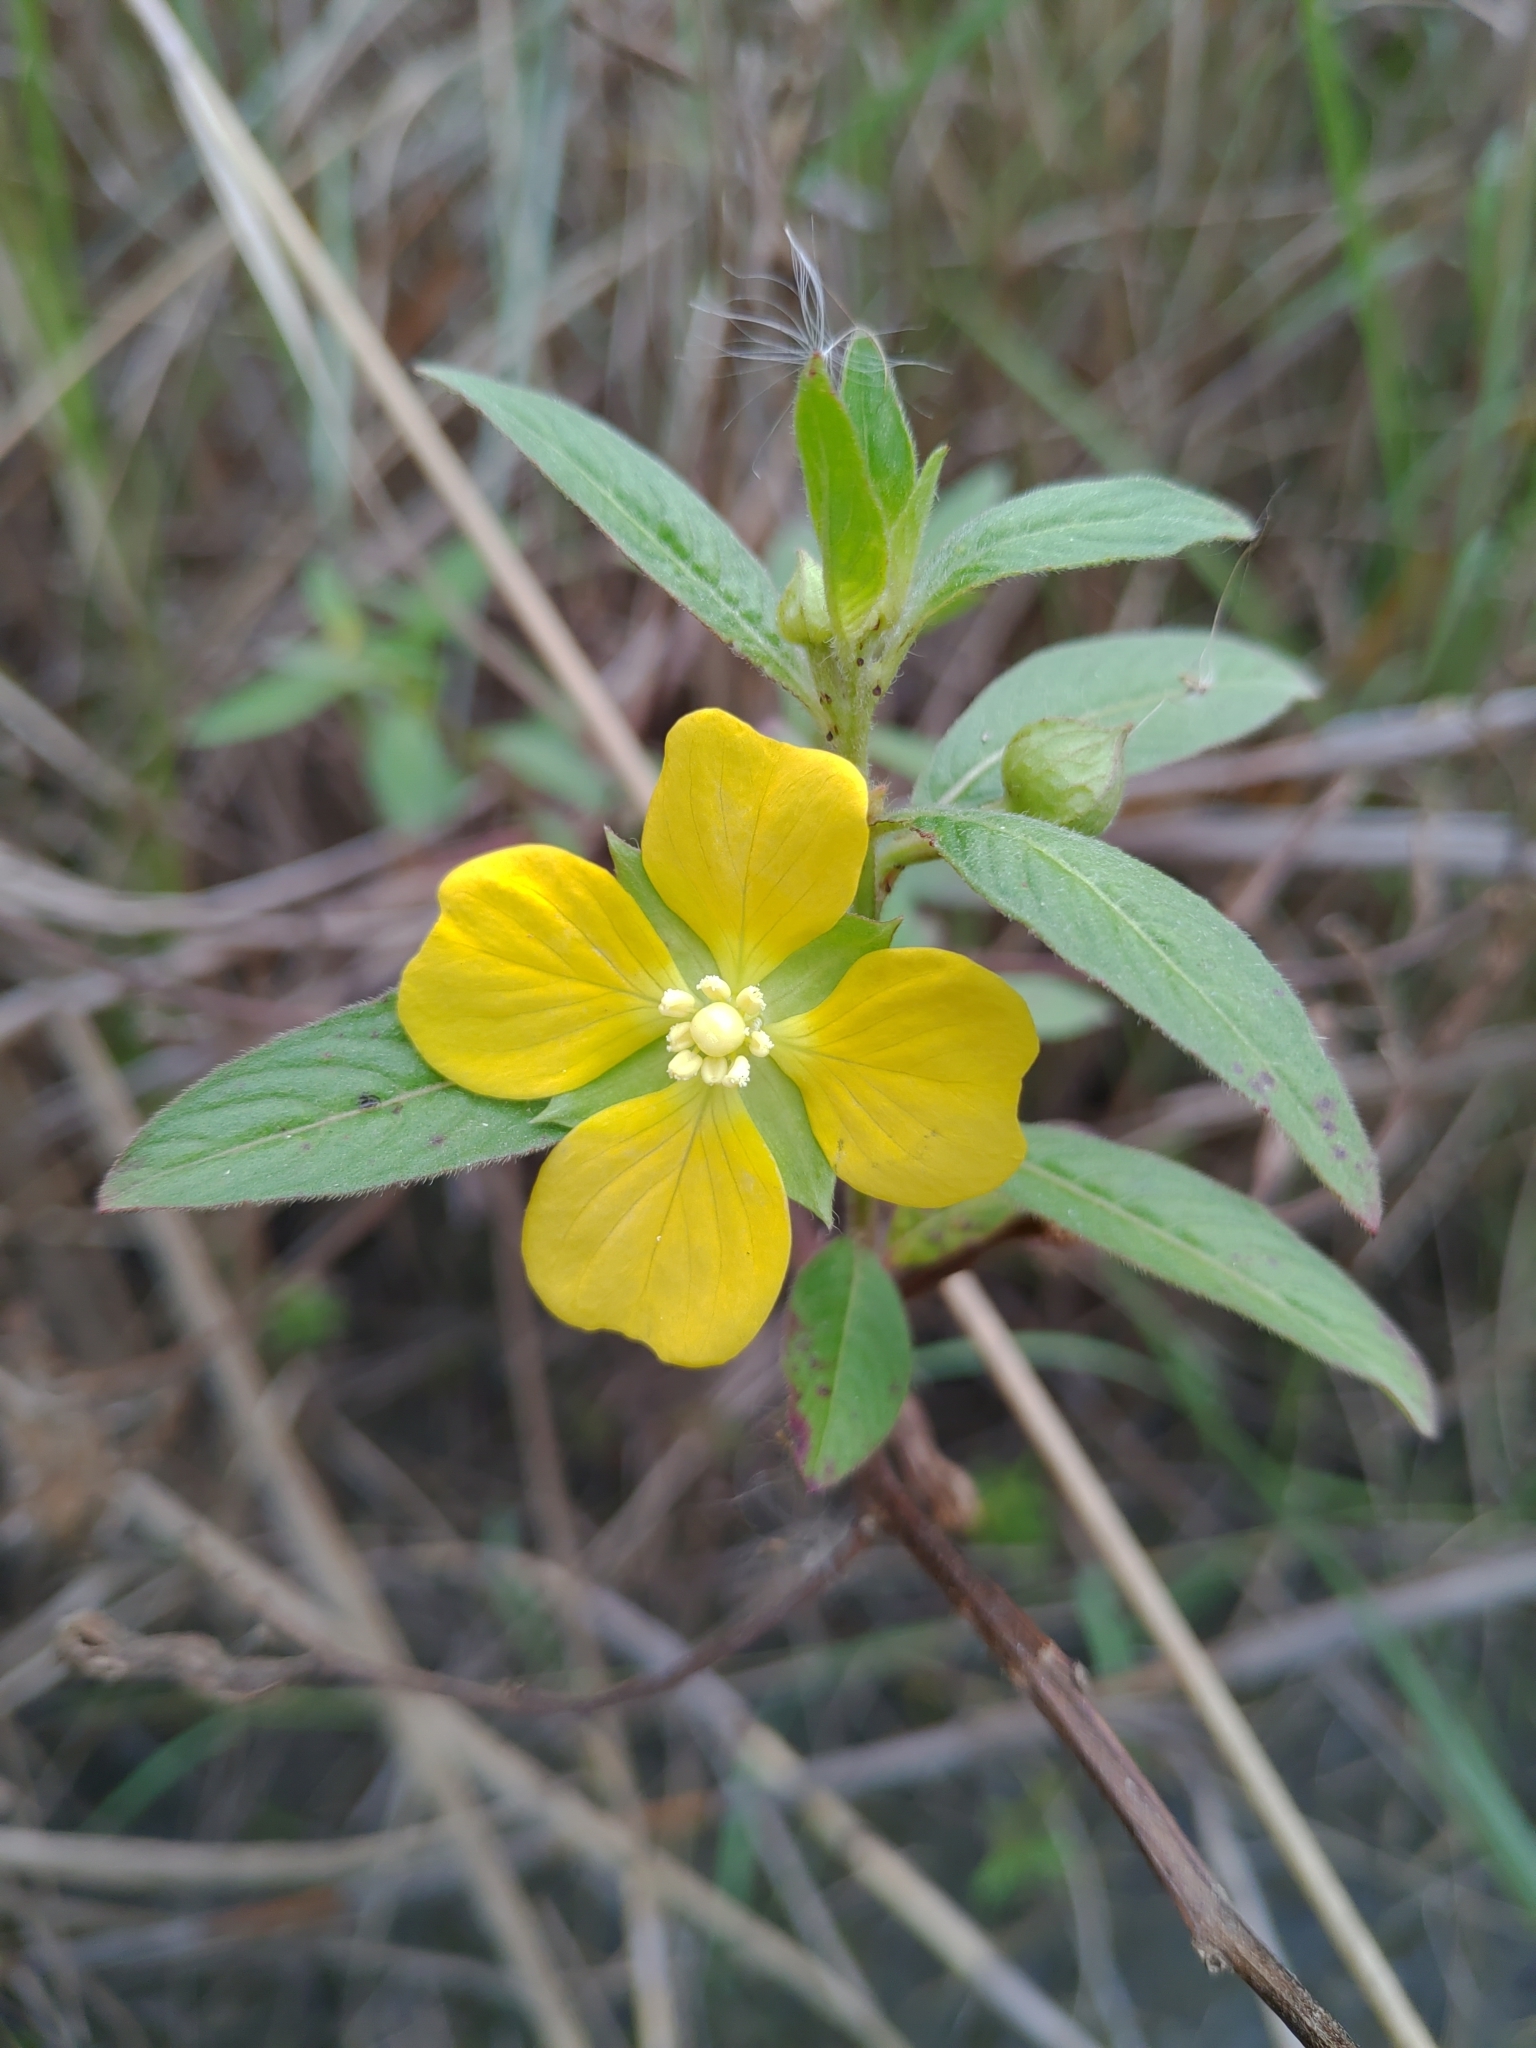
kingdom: Plantae
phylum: Tracheophyta
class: Magnoliopsida
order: Myrtales
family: Onagraceae
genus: Ludwigia
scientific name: Ludwigia octovalvis
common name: Water-primrose
